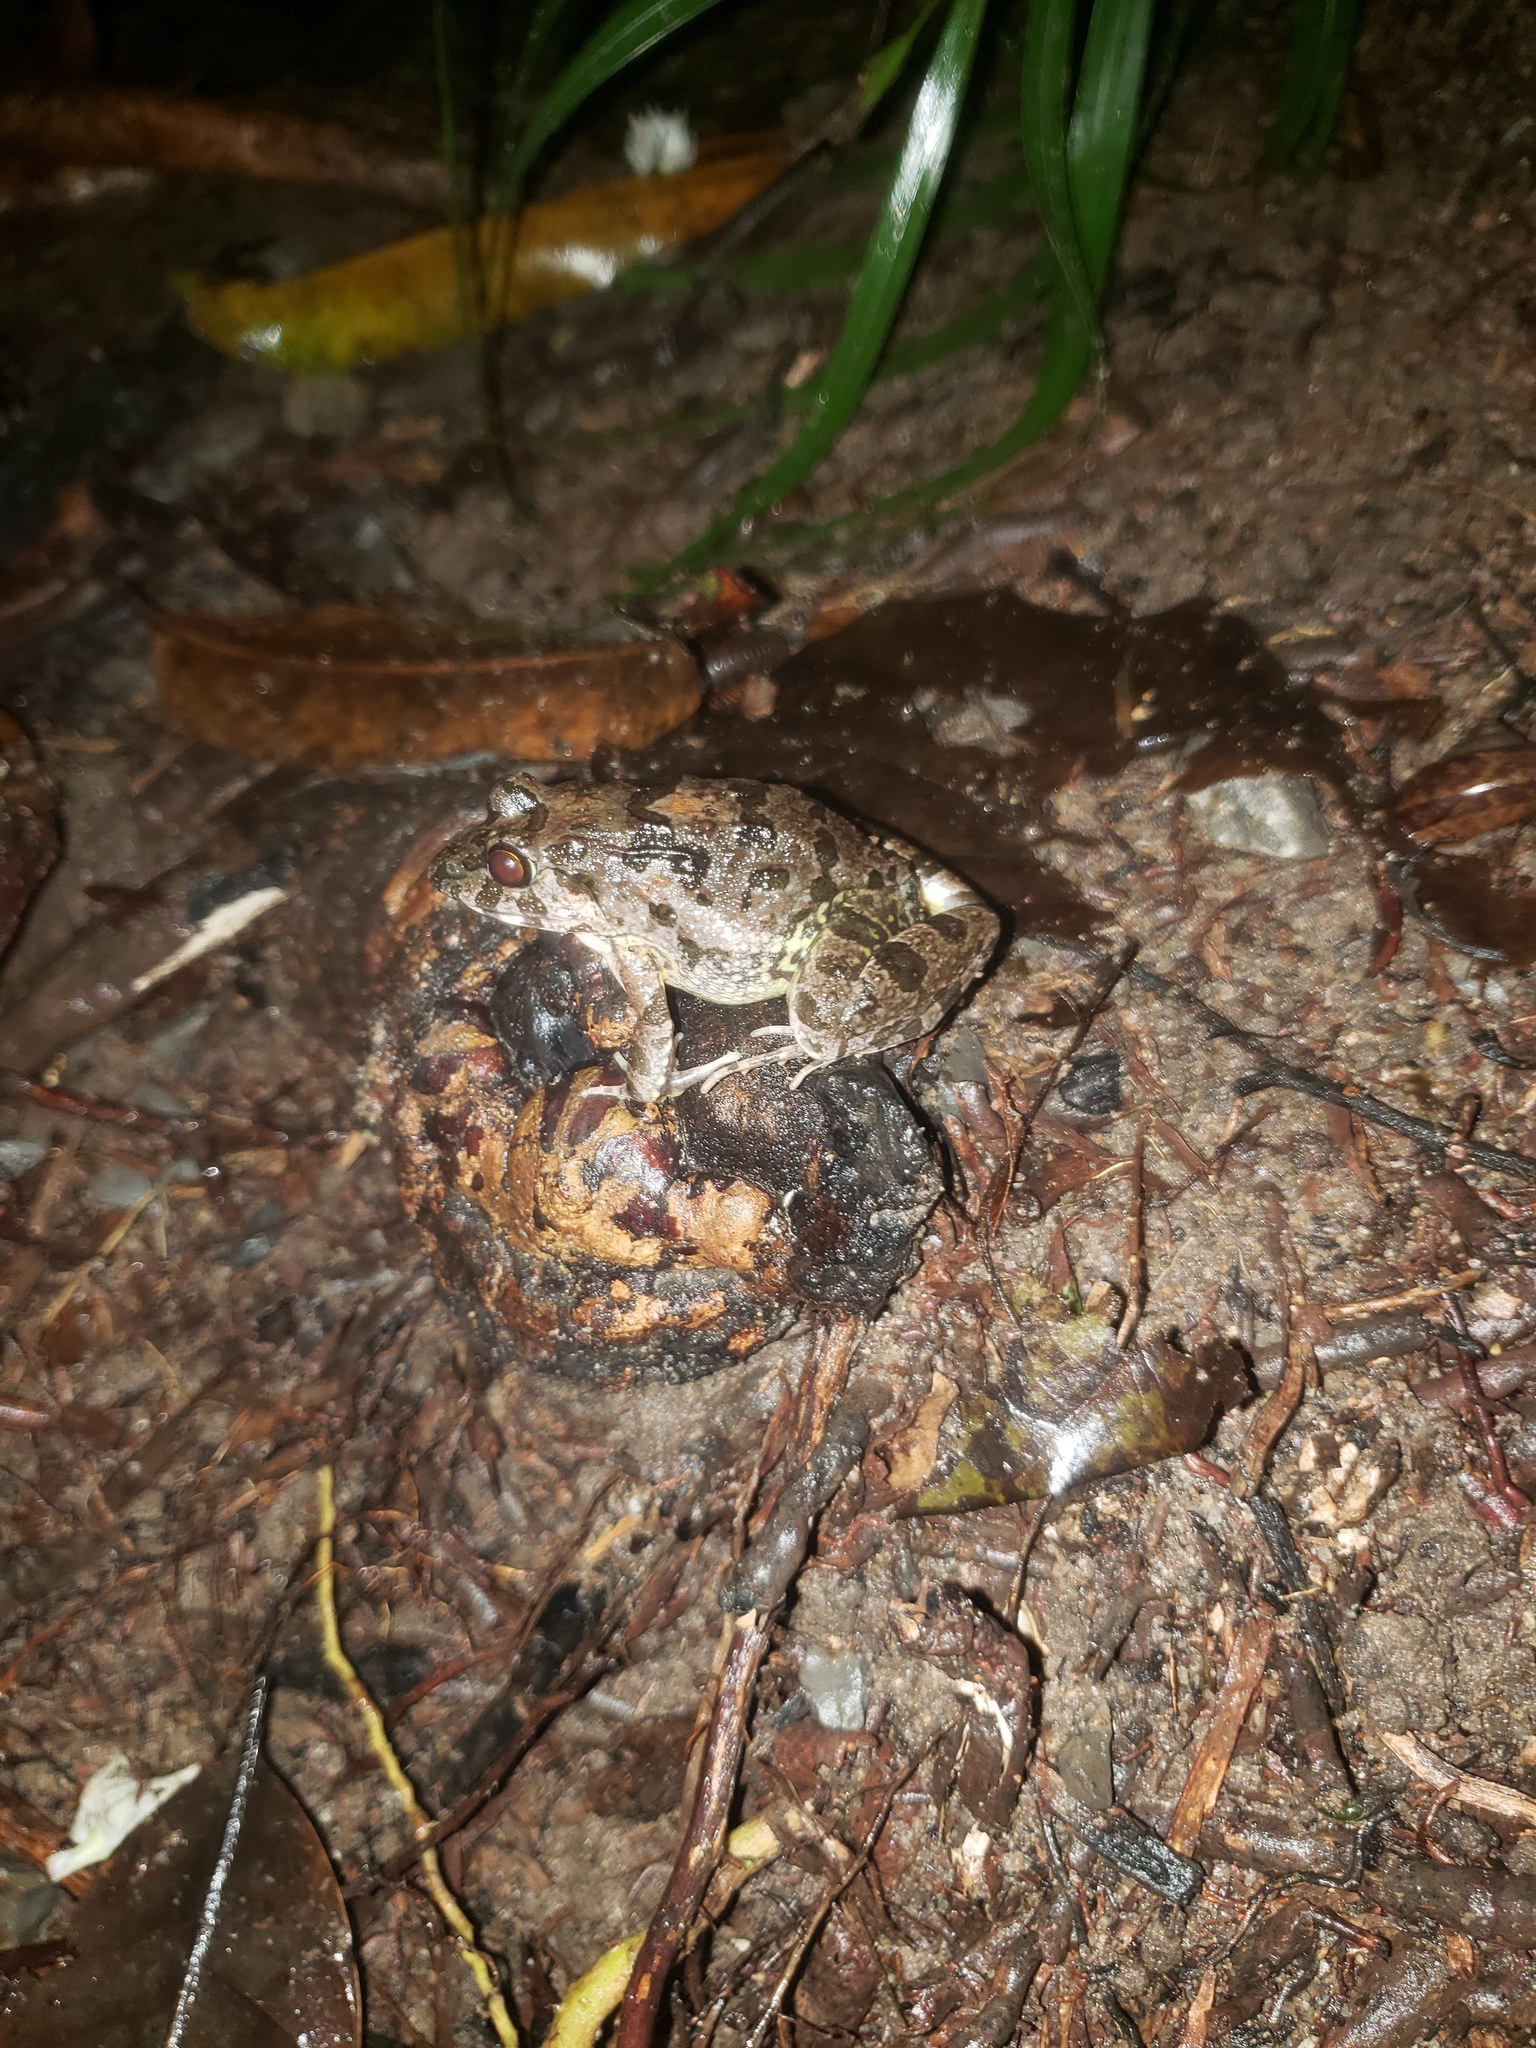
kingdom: Animalia
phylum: Chordata
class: Amphibia
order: Anura
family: Dicroglossidae
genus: Fejervarya
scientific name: Fejervarya moodiei
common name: Crab-eating frog
